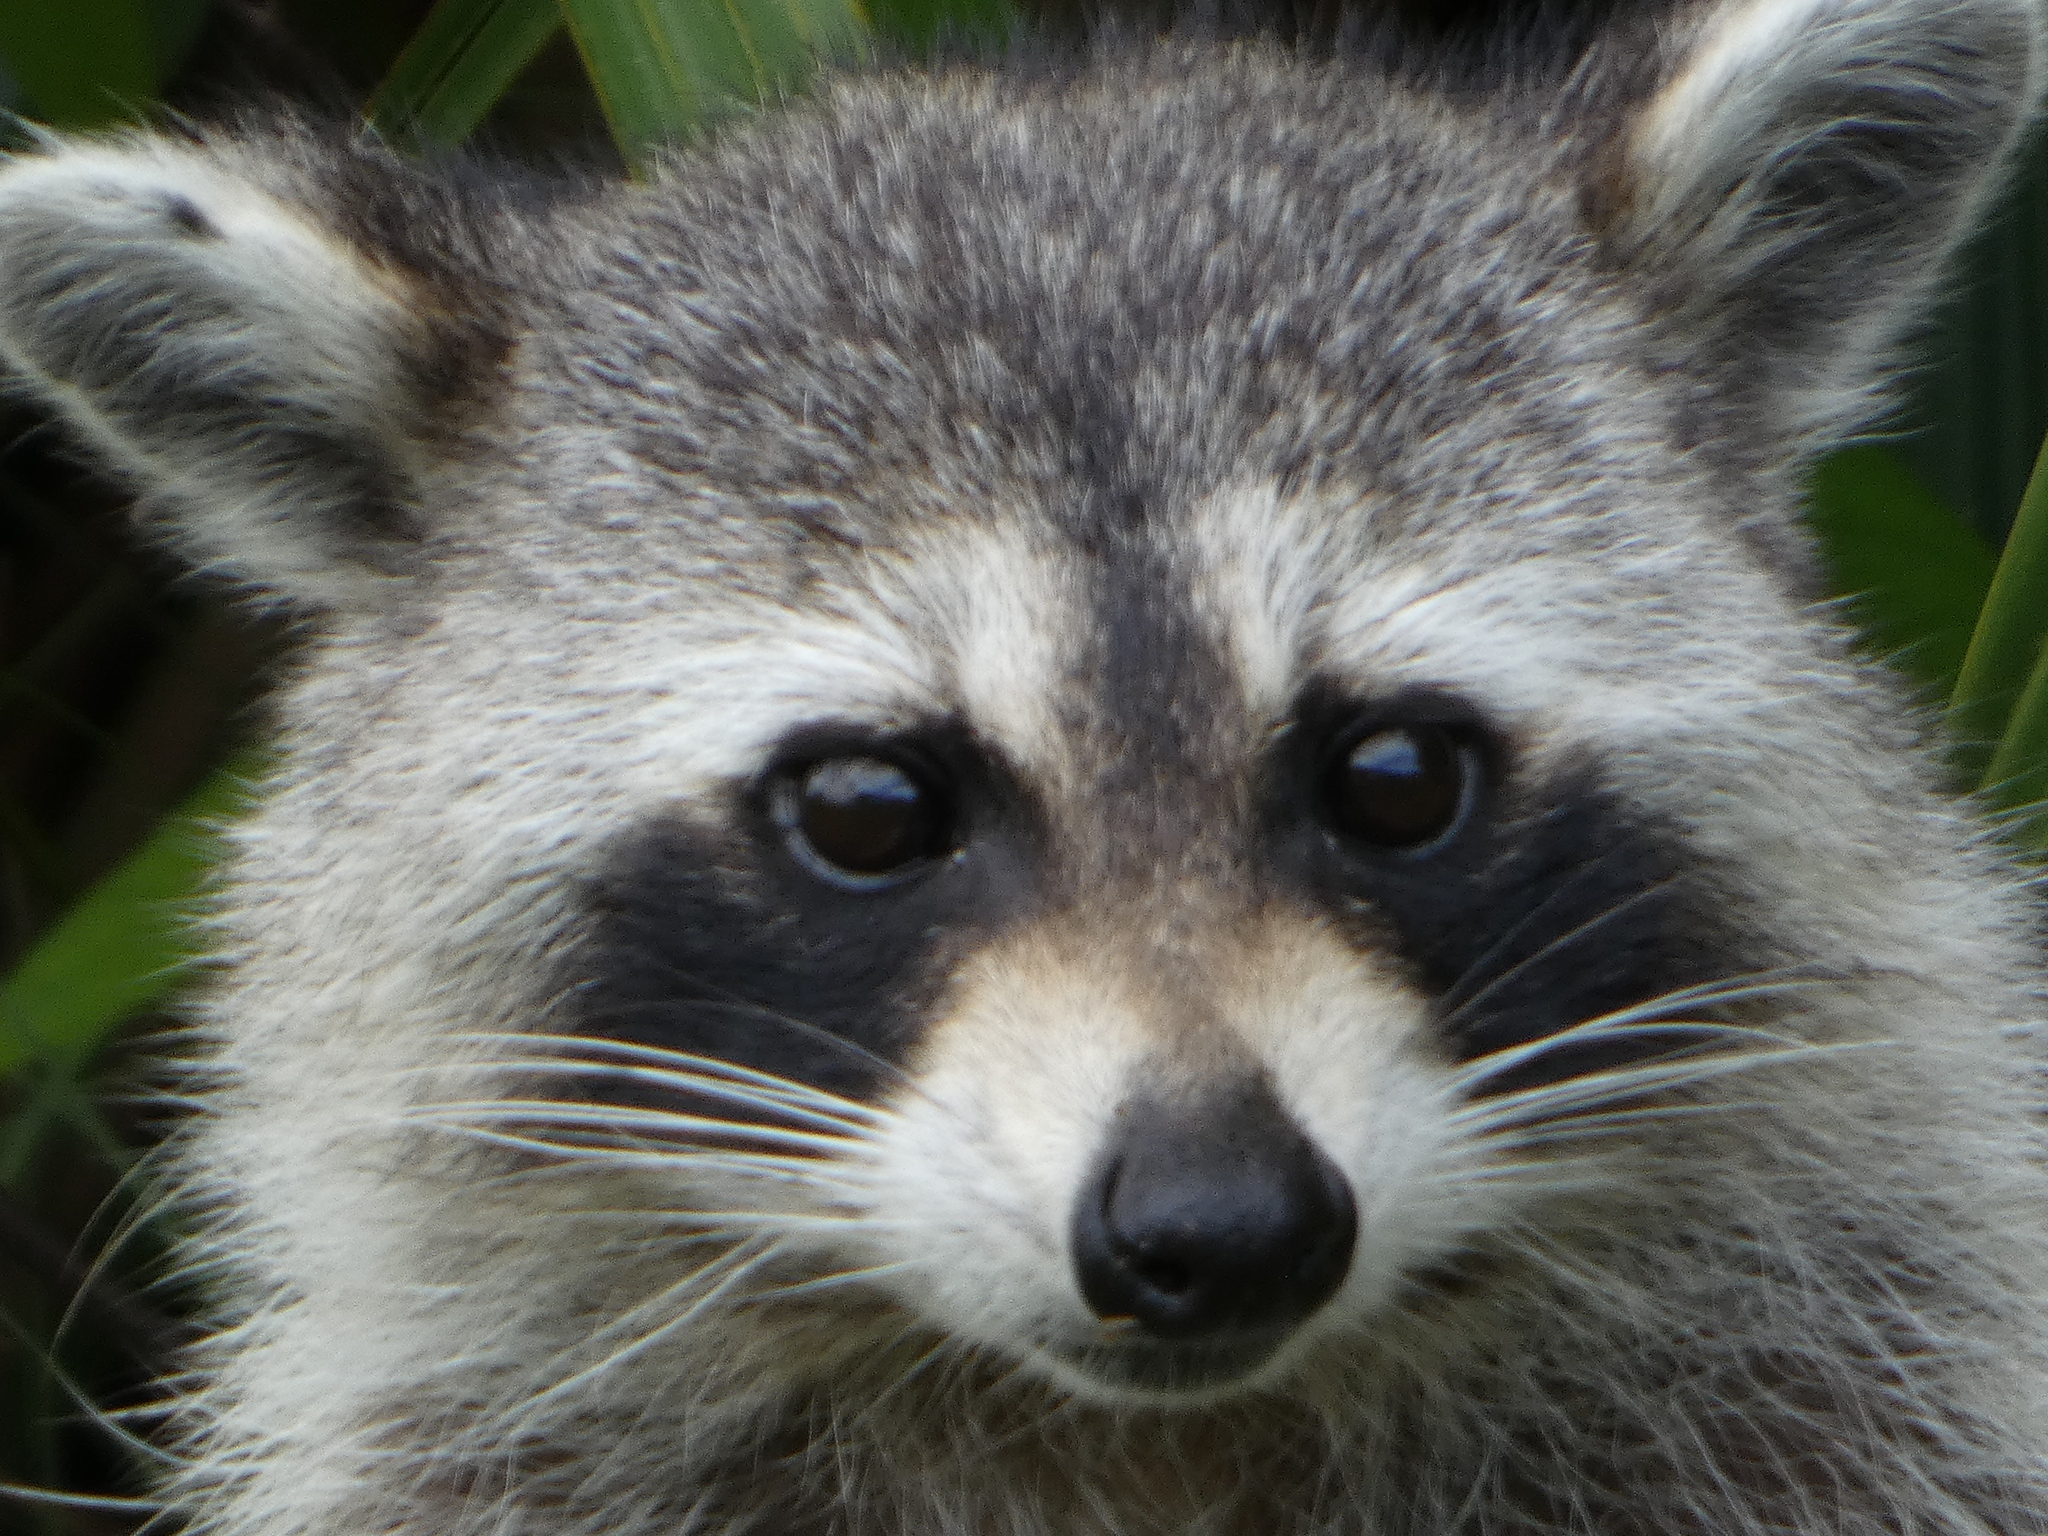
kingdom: Animalia
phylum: Chordata
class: Mammalia
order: Carnivora
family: Procyonidae
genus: Procyon
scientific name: Procyon lotor
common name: Raccoon
